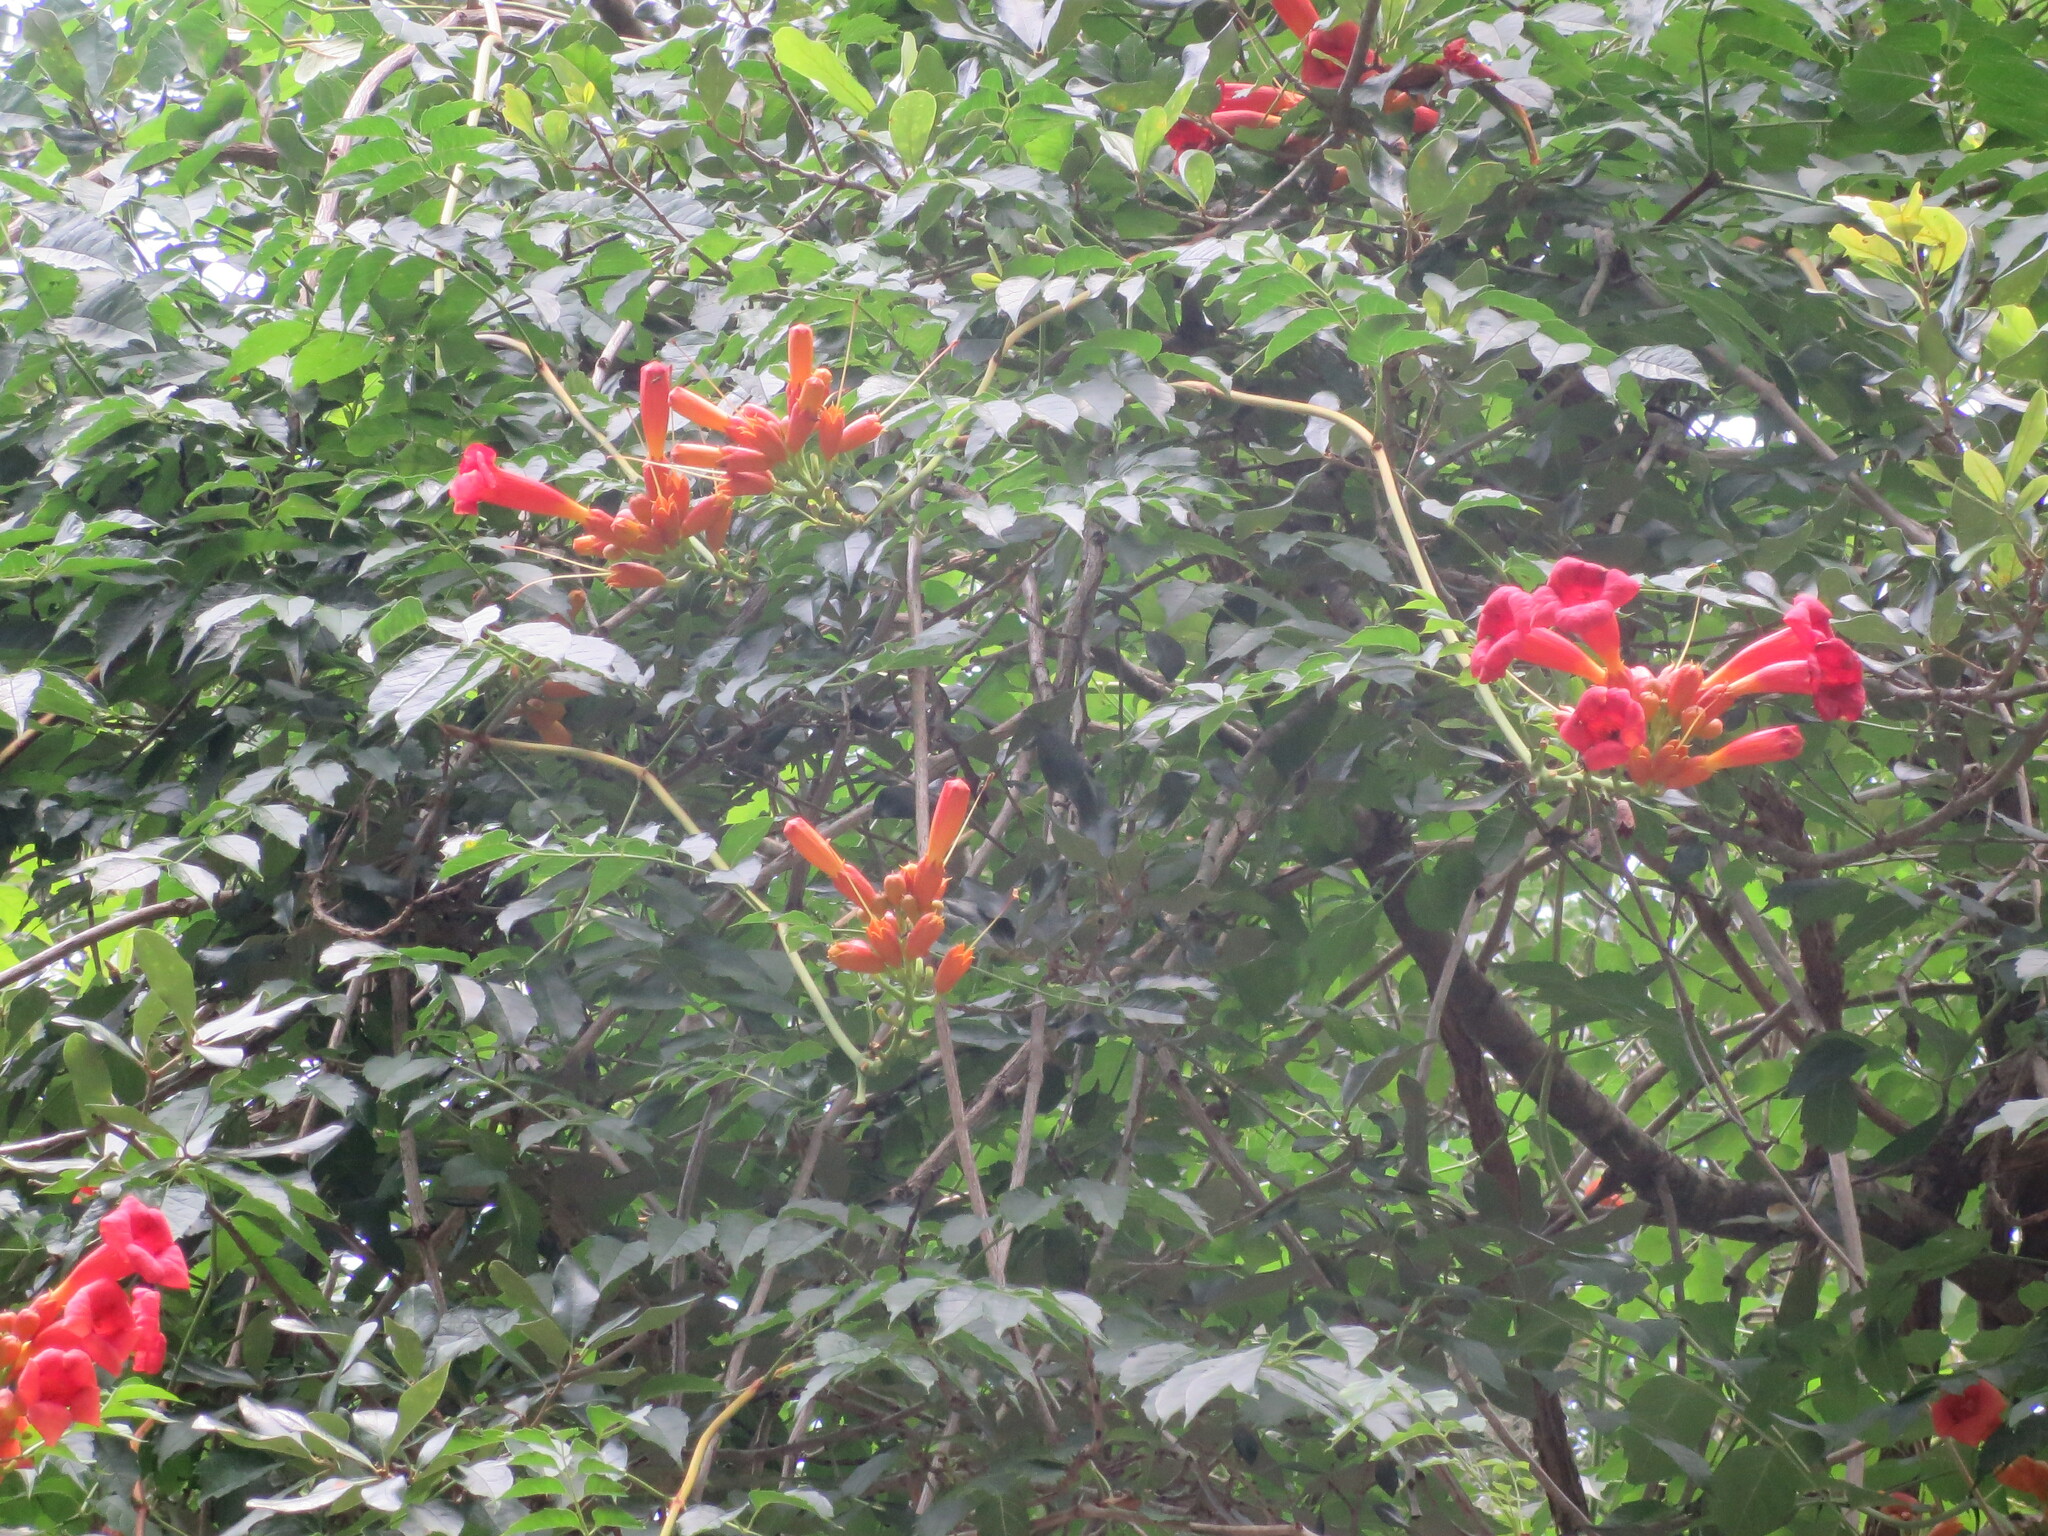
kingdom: Plantae
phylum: Tracheophyta
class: Magnoliopsida
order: Lamiales
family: Bignoniaceae
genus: Campsis
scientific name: Campsis radicans
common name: Trumpet-creeper
